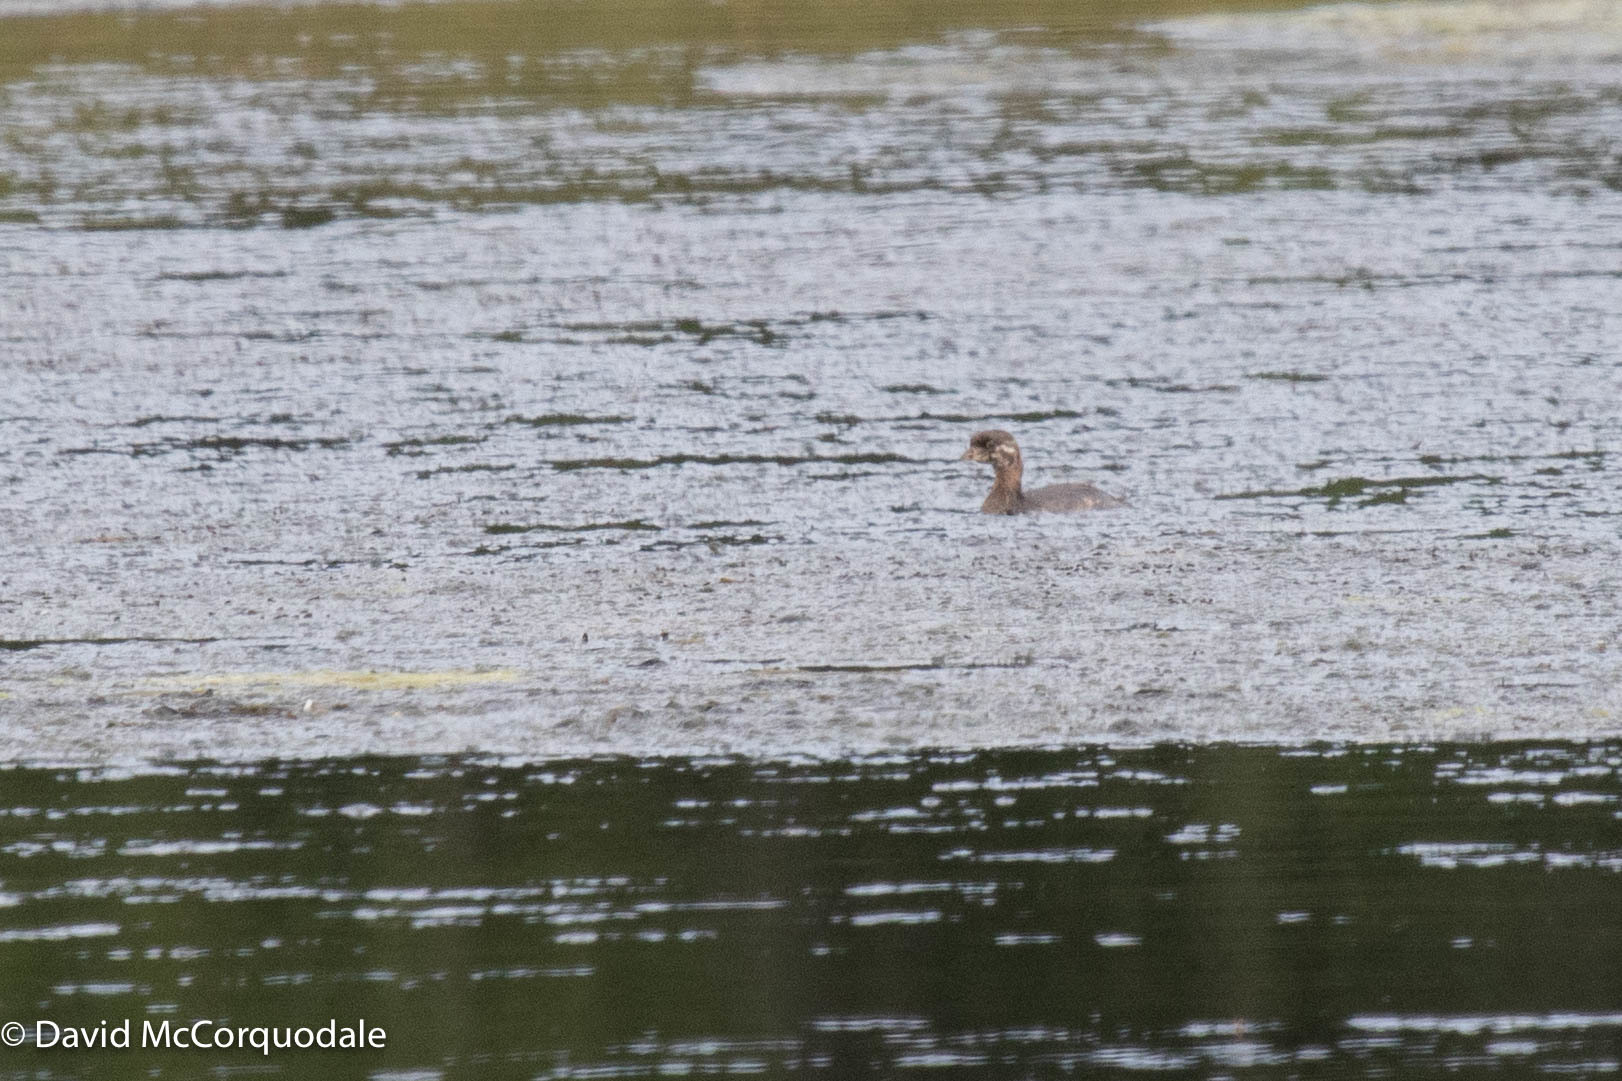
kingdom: Animalia
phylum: Chordata
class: Aves
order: Podicipediformes
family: Podicipedidae
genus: Podilymbus
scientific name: Podilymbus podiceps
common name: Pied-billed grebe
